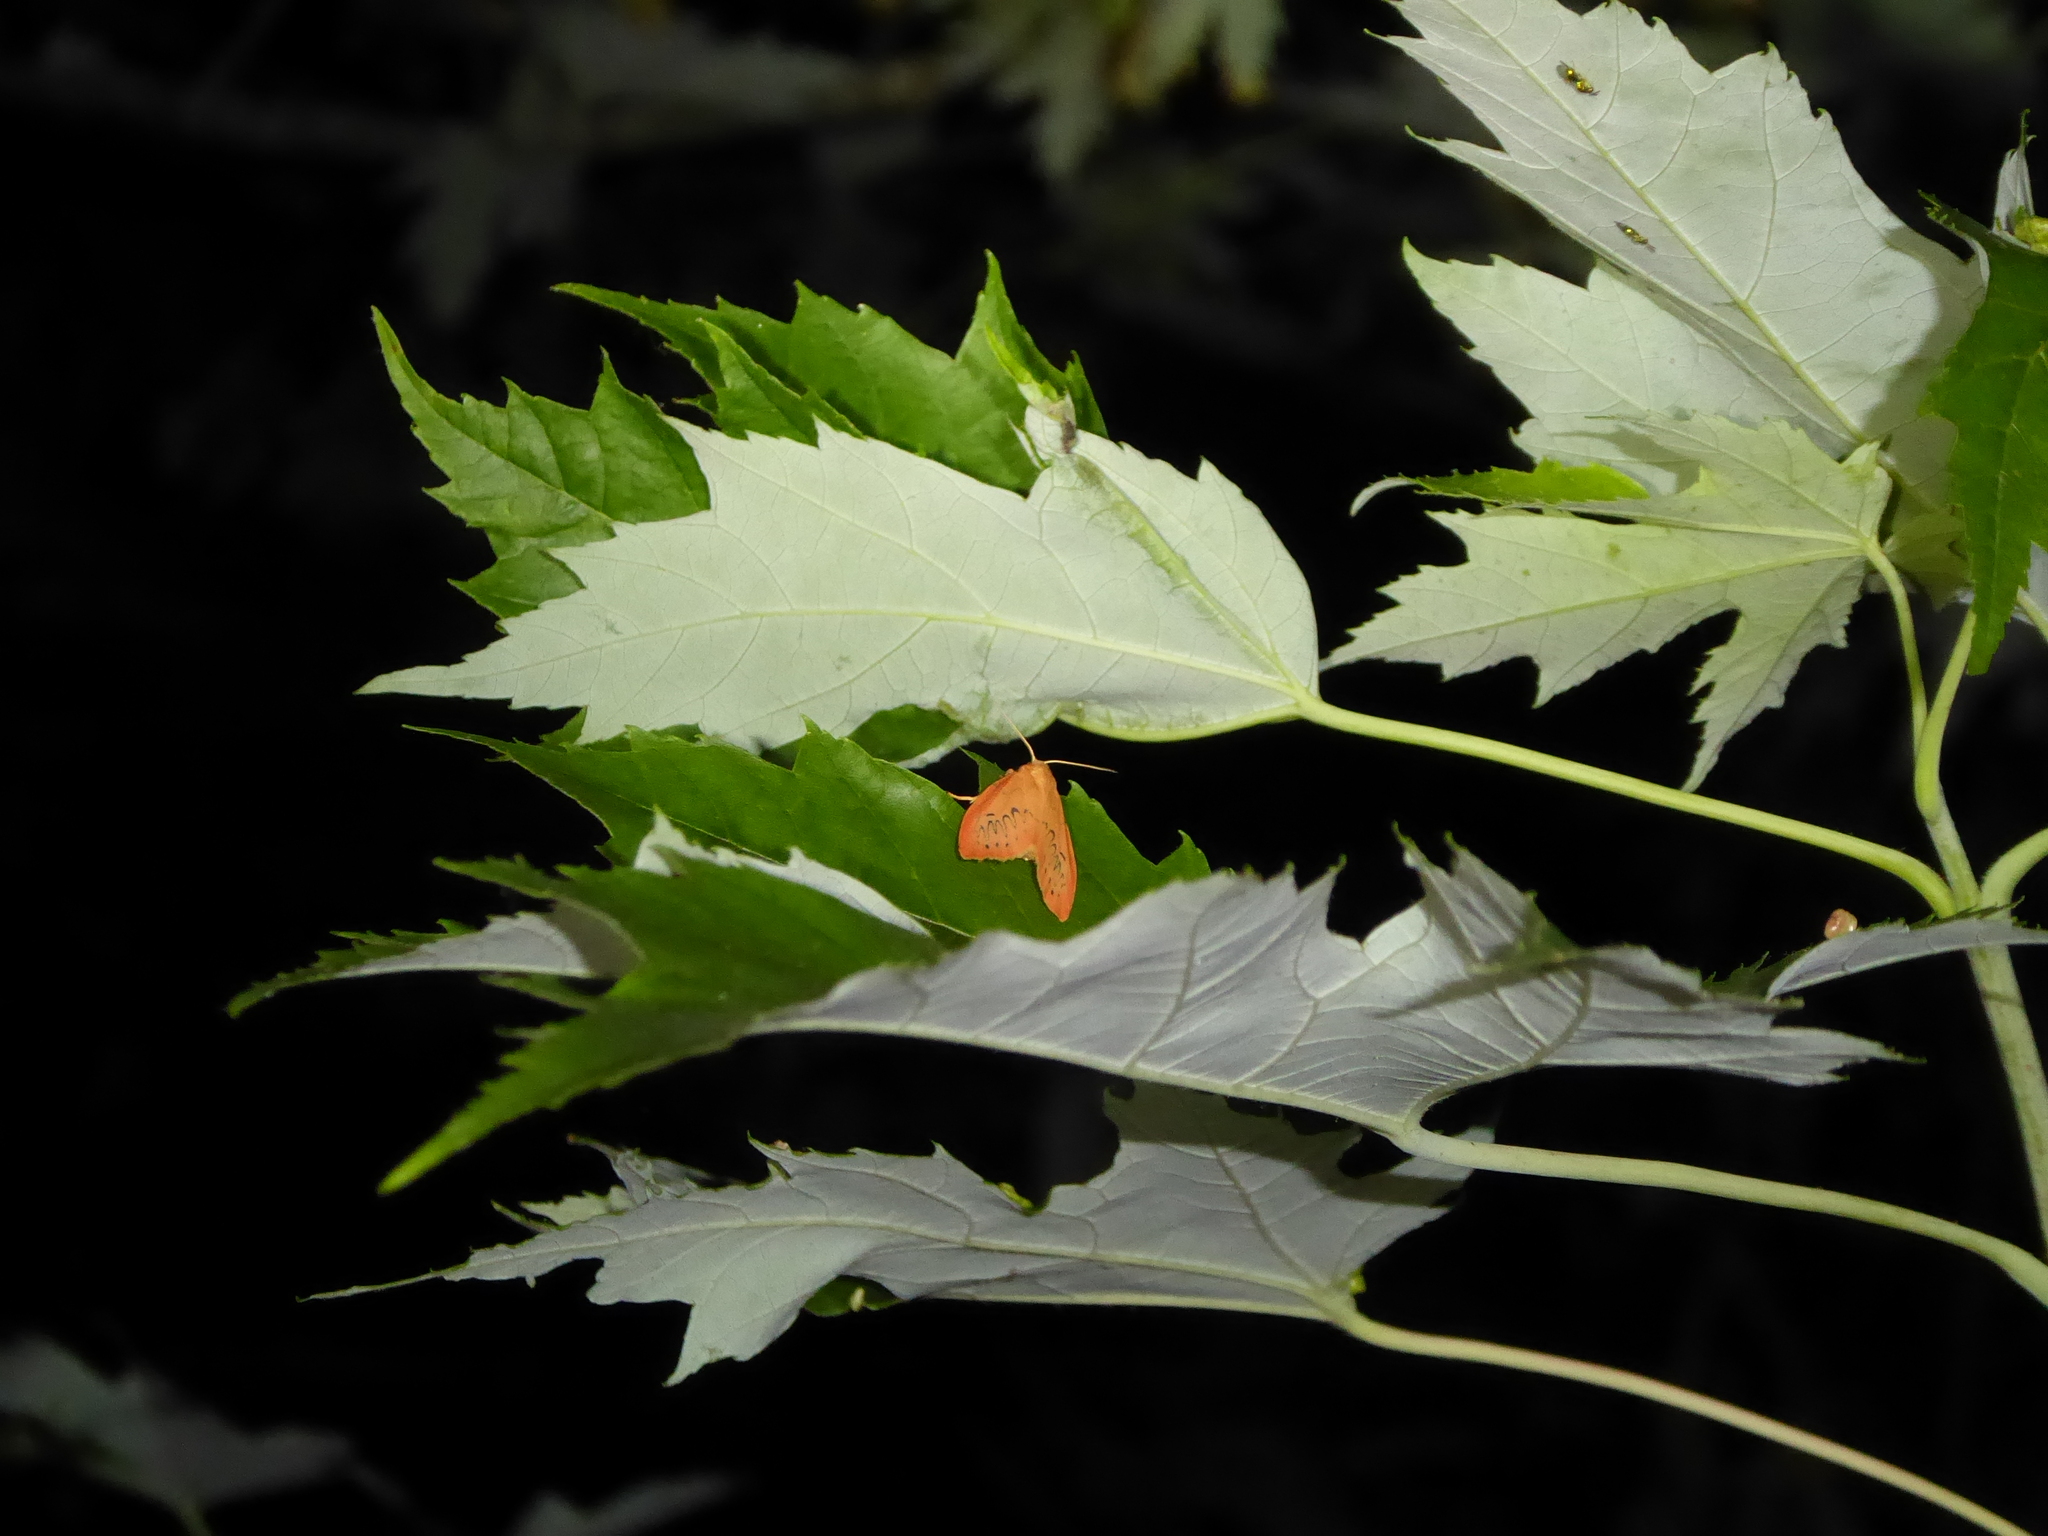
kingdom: Animalia
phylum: Arthropoda
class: Insecta
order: Lepidoptera
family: Erebidae
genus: Miltochrista
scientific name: Miltochrista miniata
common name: Rosy footman
